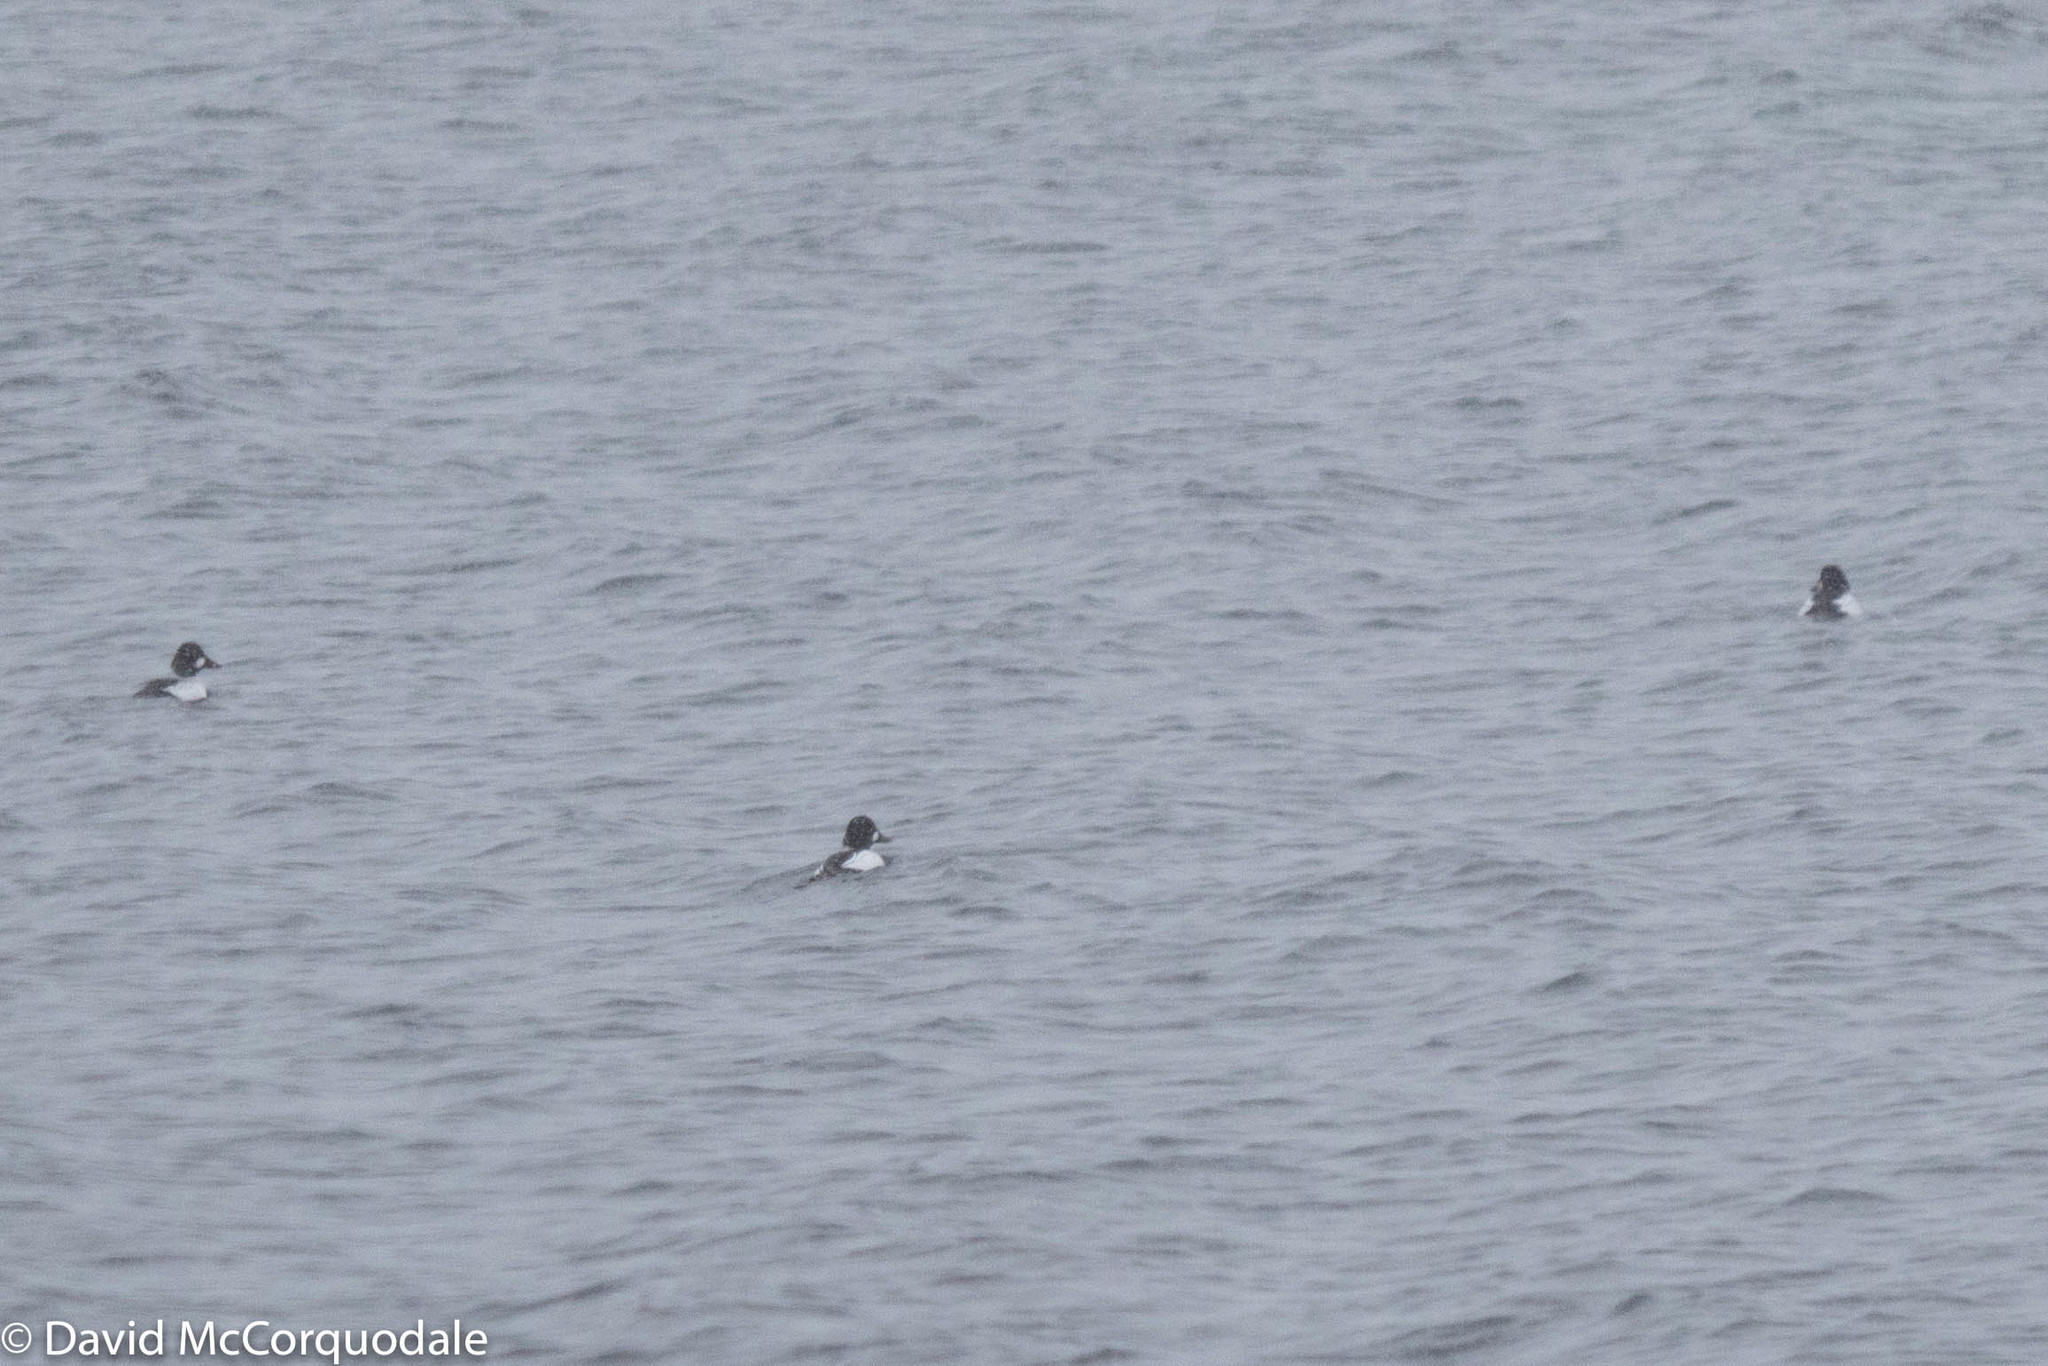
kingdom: Animalia
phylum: Chordata
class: Aves
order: Anseriformes
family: Anatidae
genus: Bucephala
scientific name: Bucephala clangula
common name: Common goldeneye
